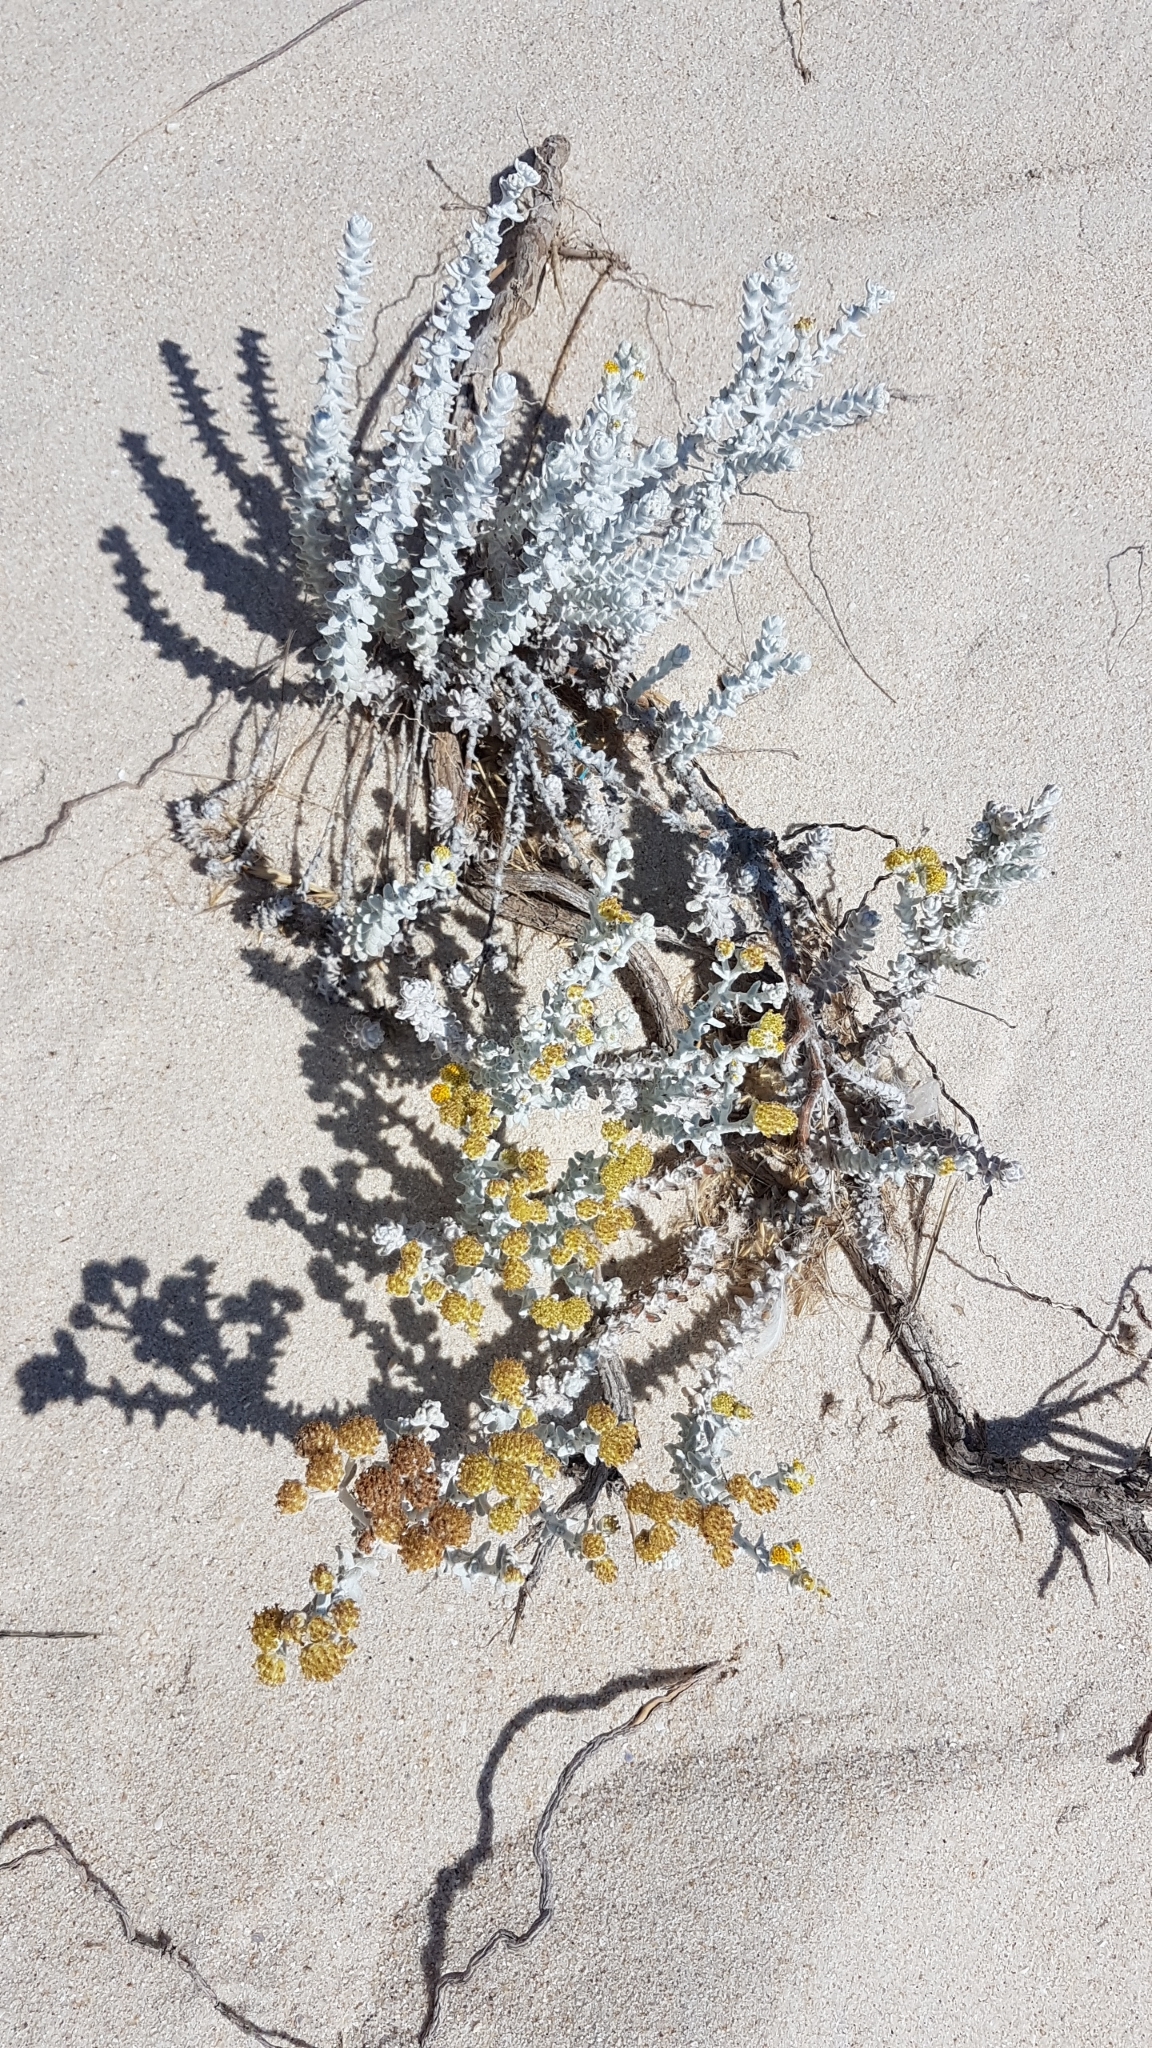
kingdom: Plantae
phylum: Tracheophyta
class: Magnoliopsida
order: Asterales
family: Asteraceae
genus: Achillea
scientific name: Achillea maritima
